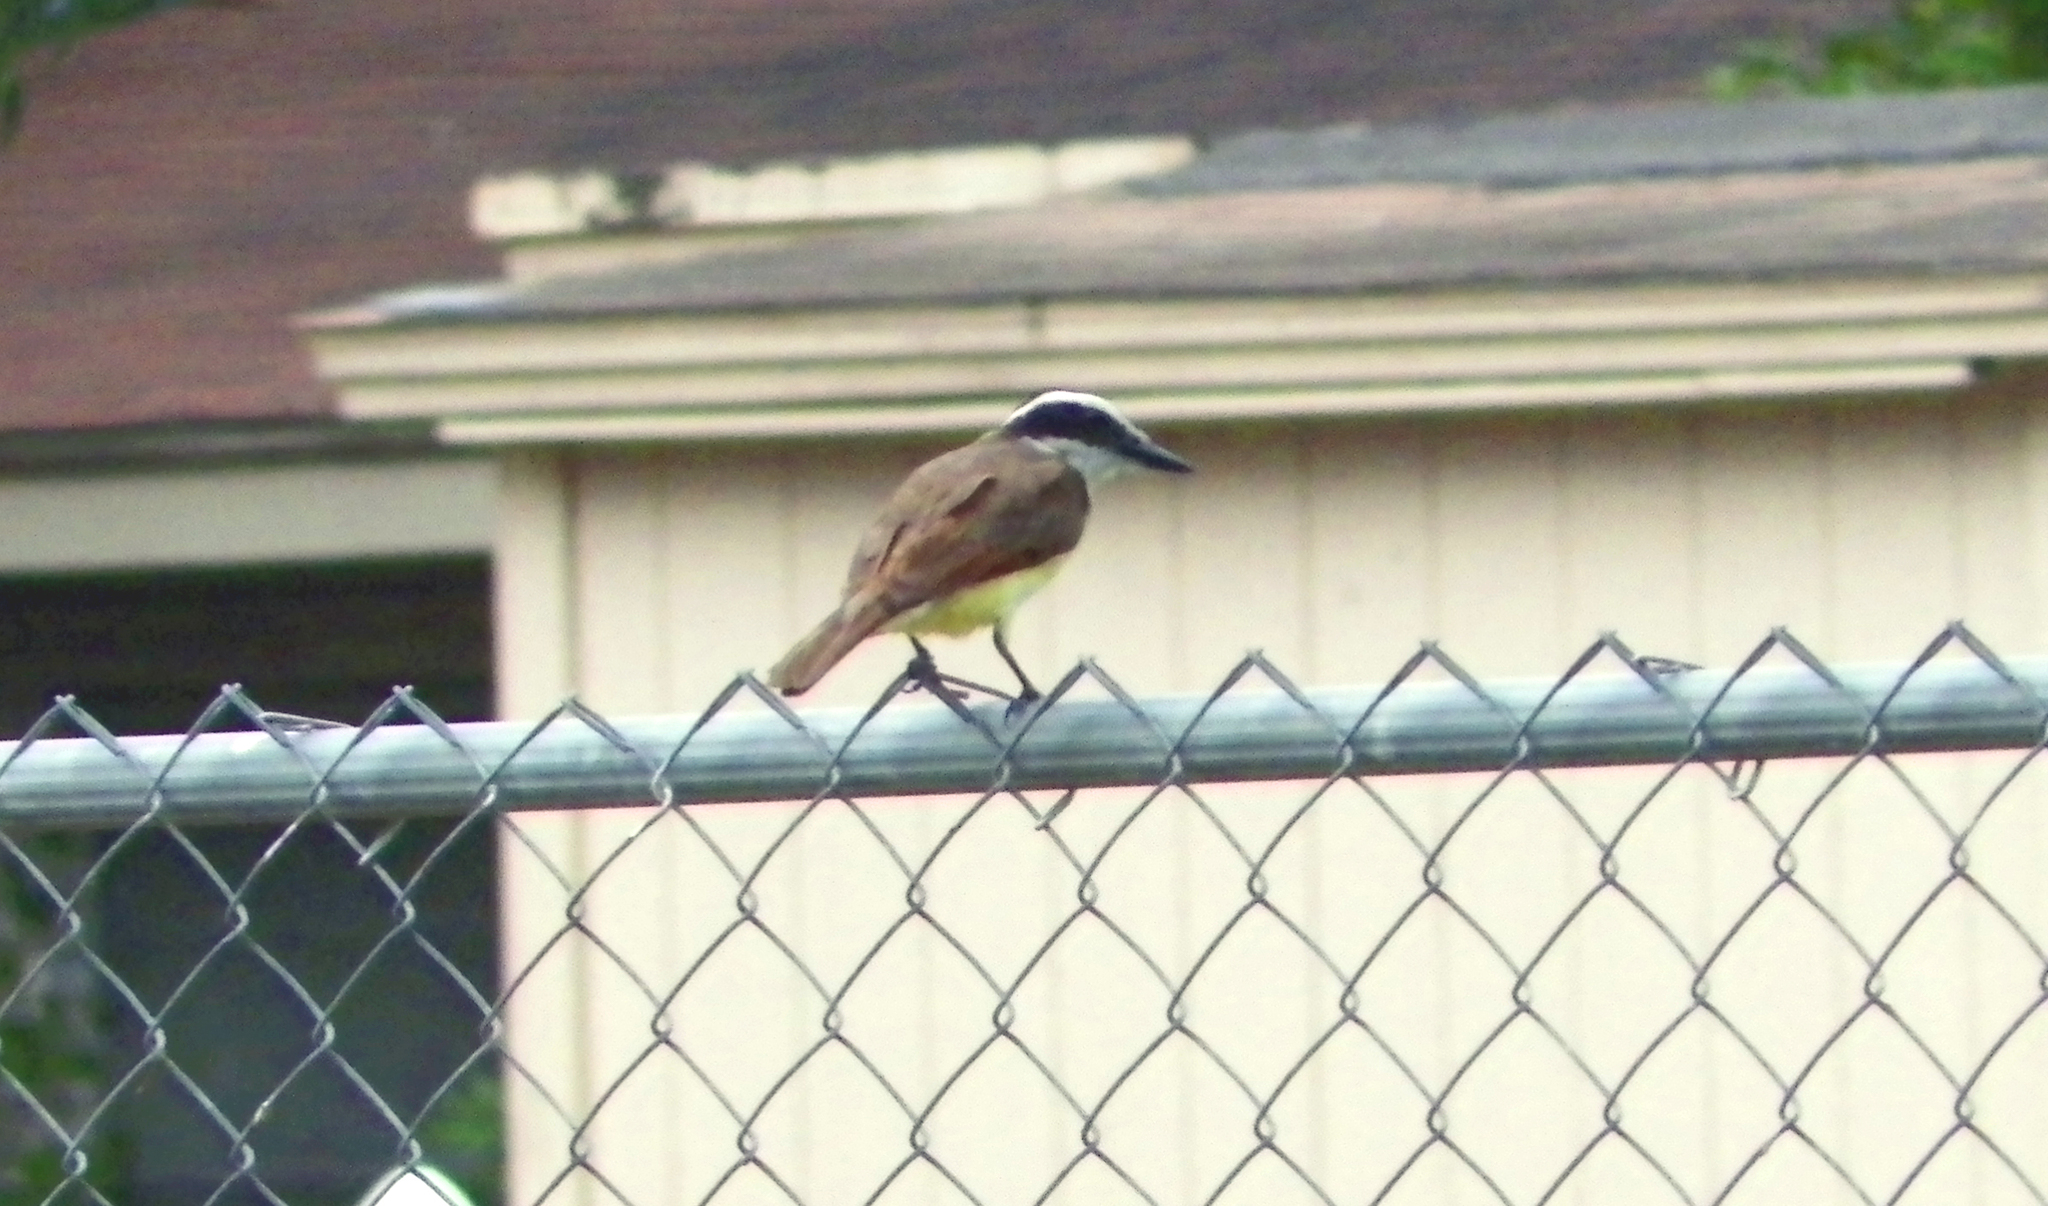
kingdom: Animalia
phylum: Chordata
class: Aves
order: Passeriformes
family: Tyrannidae
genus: Pitangus
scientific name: Pitangus sulphuratus
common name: Great kiskadee
